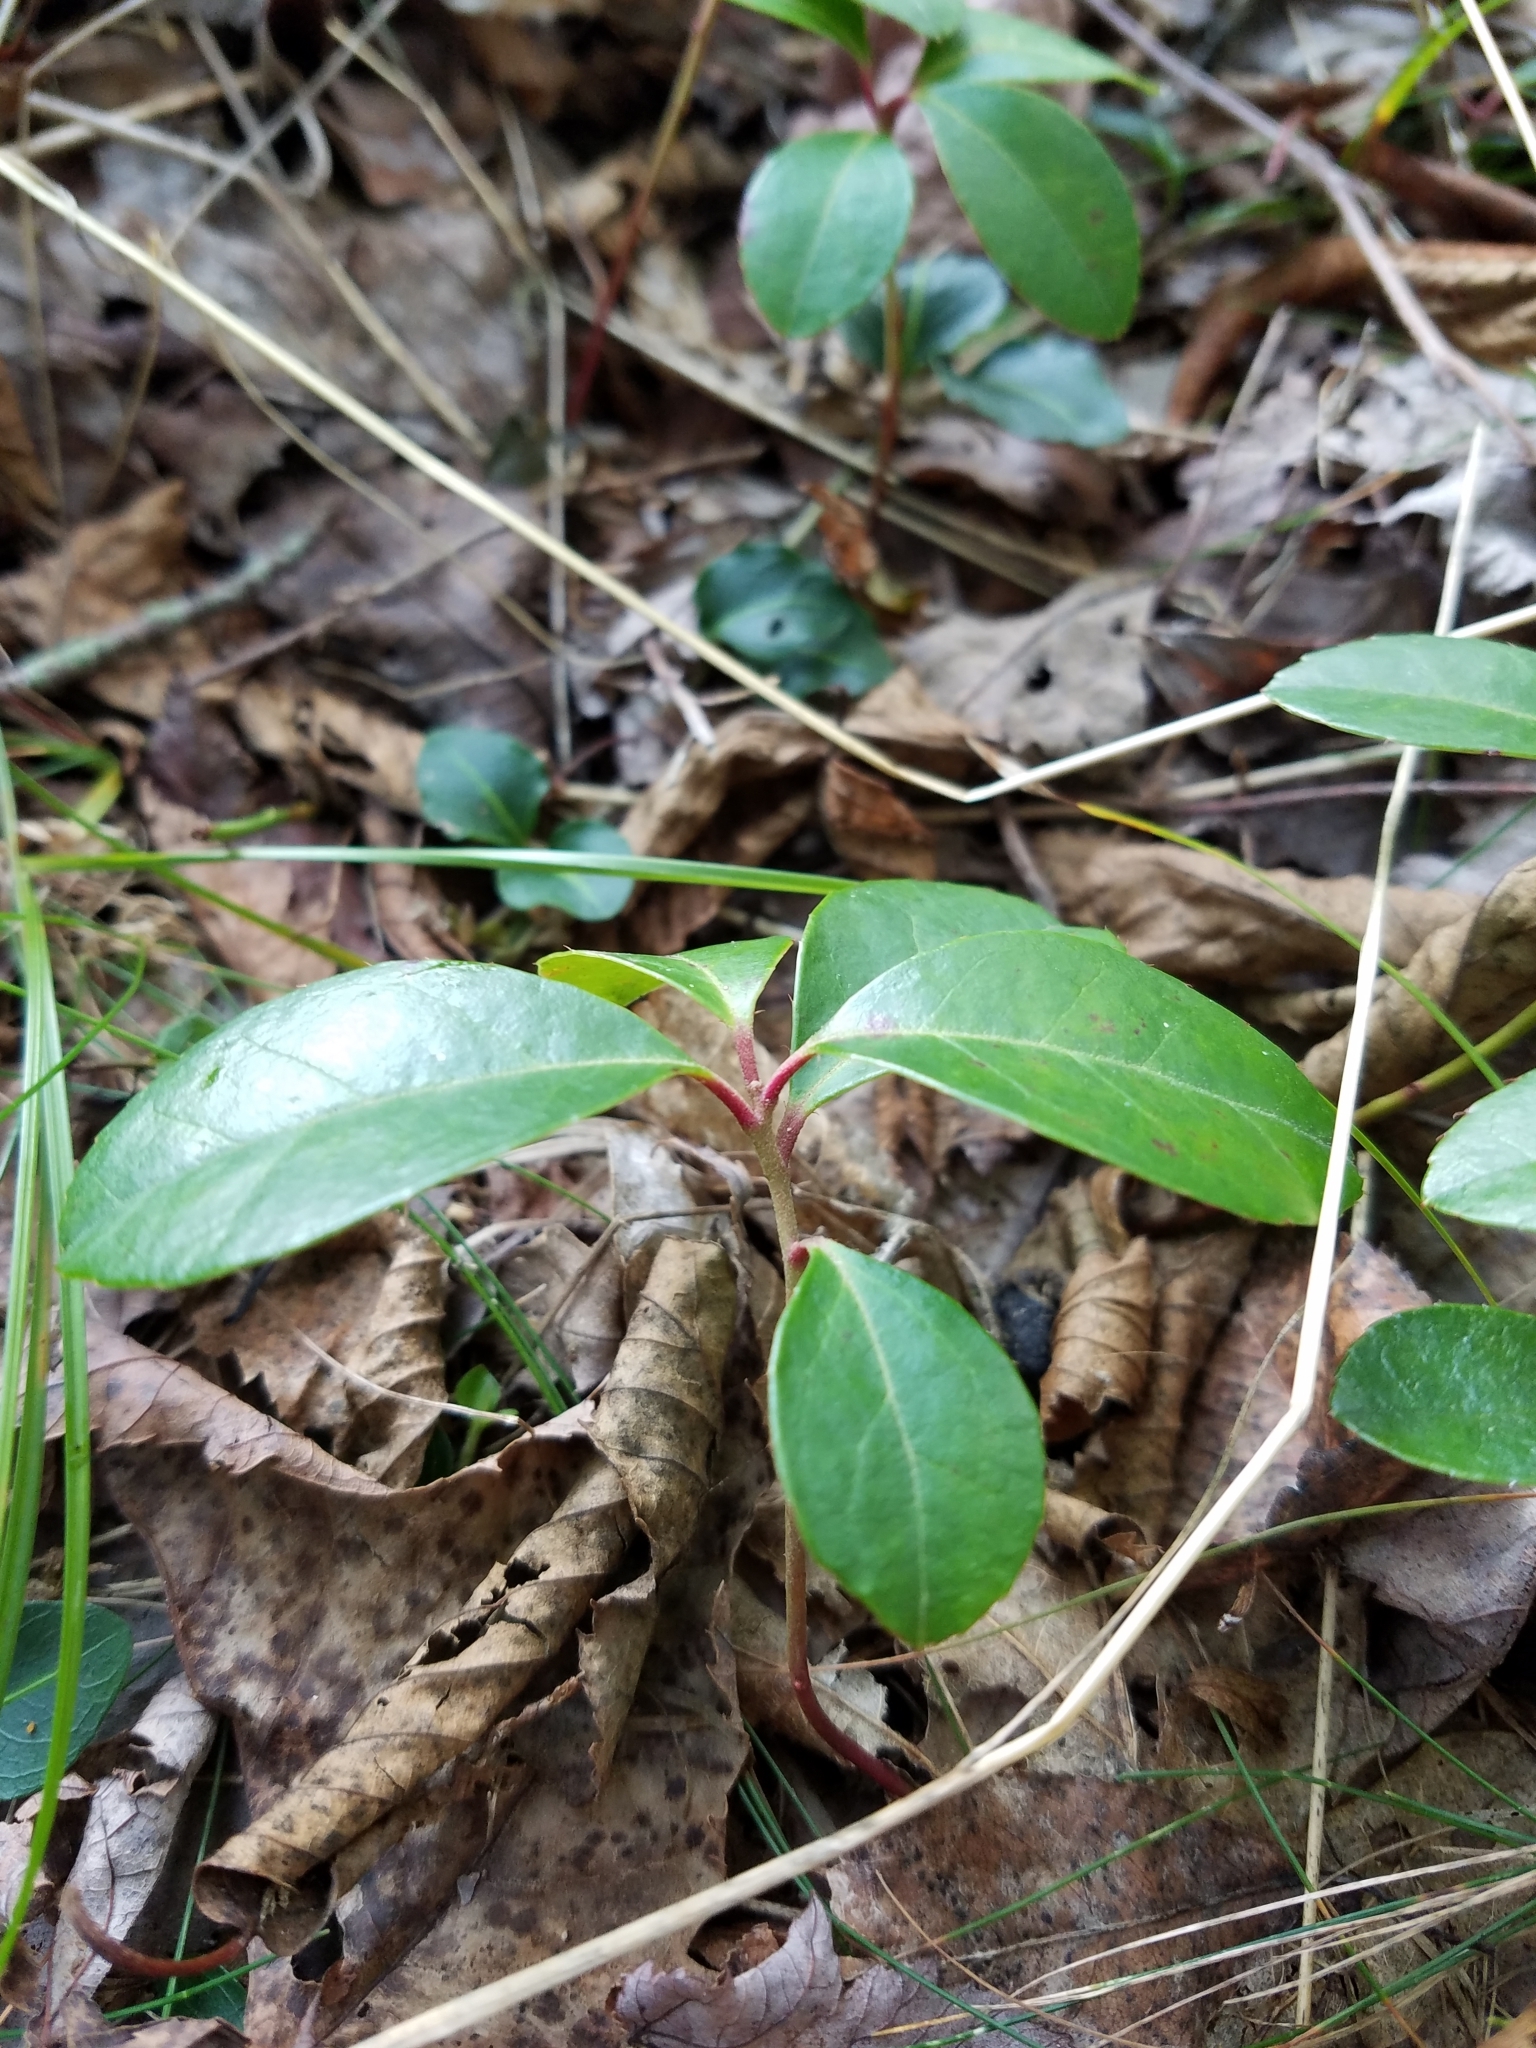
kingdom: Plantae
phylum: Tracheophyta
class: Magnoliopsida
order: Ericales
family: Ericaceae
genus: Gaultheria
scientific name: Gaultheria procumbens
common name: Checkerberry
